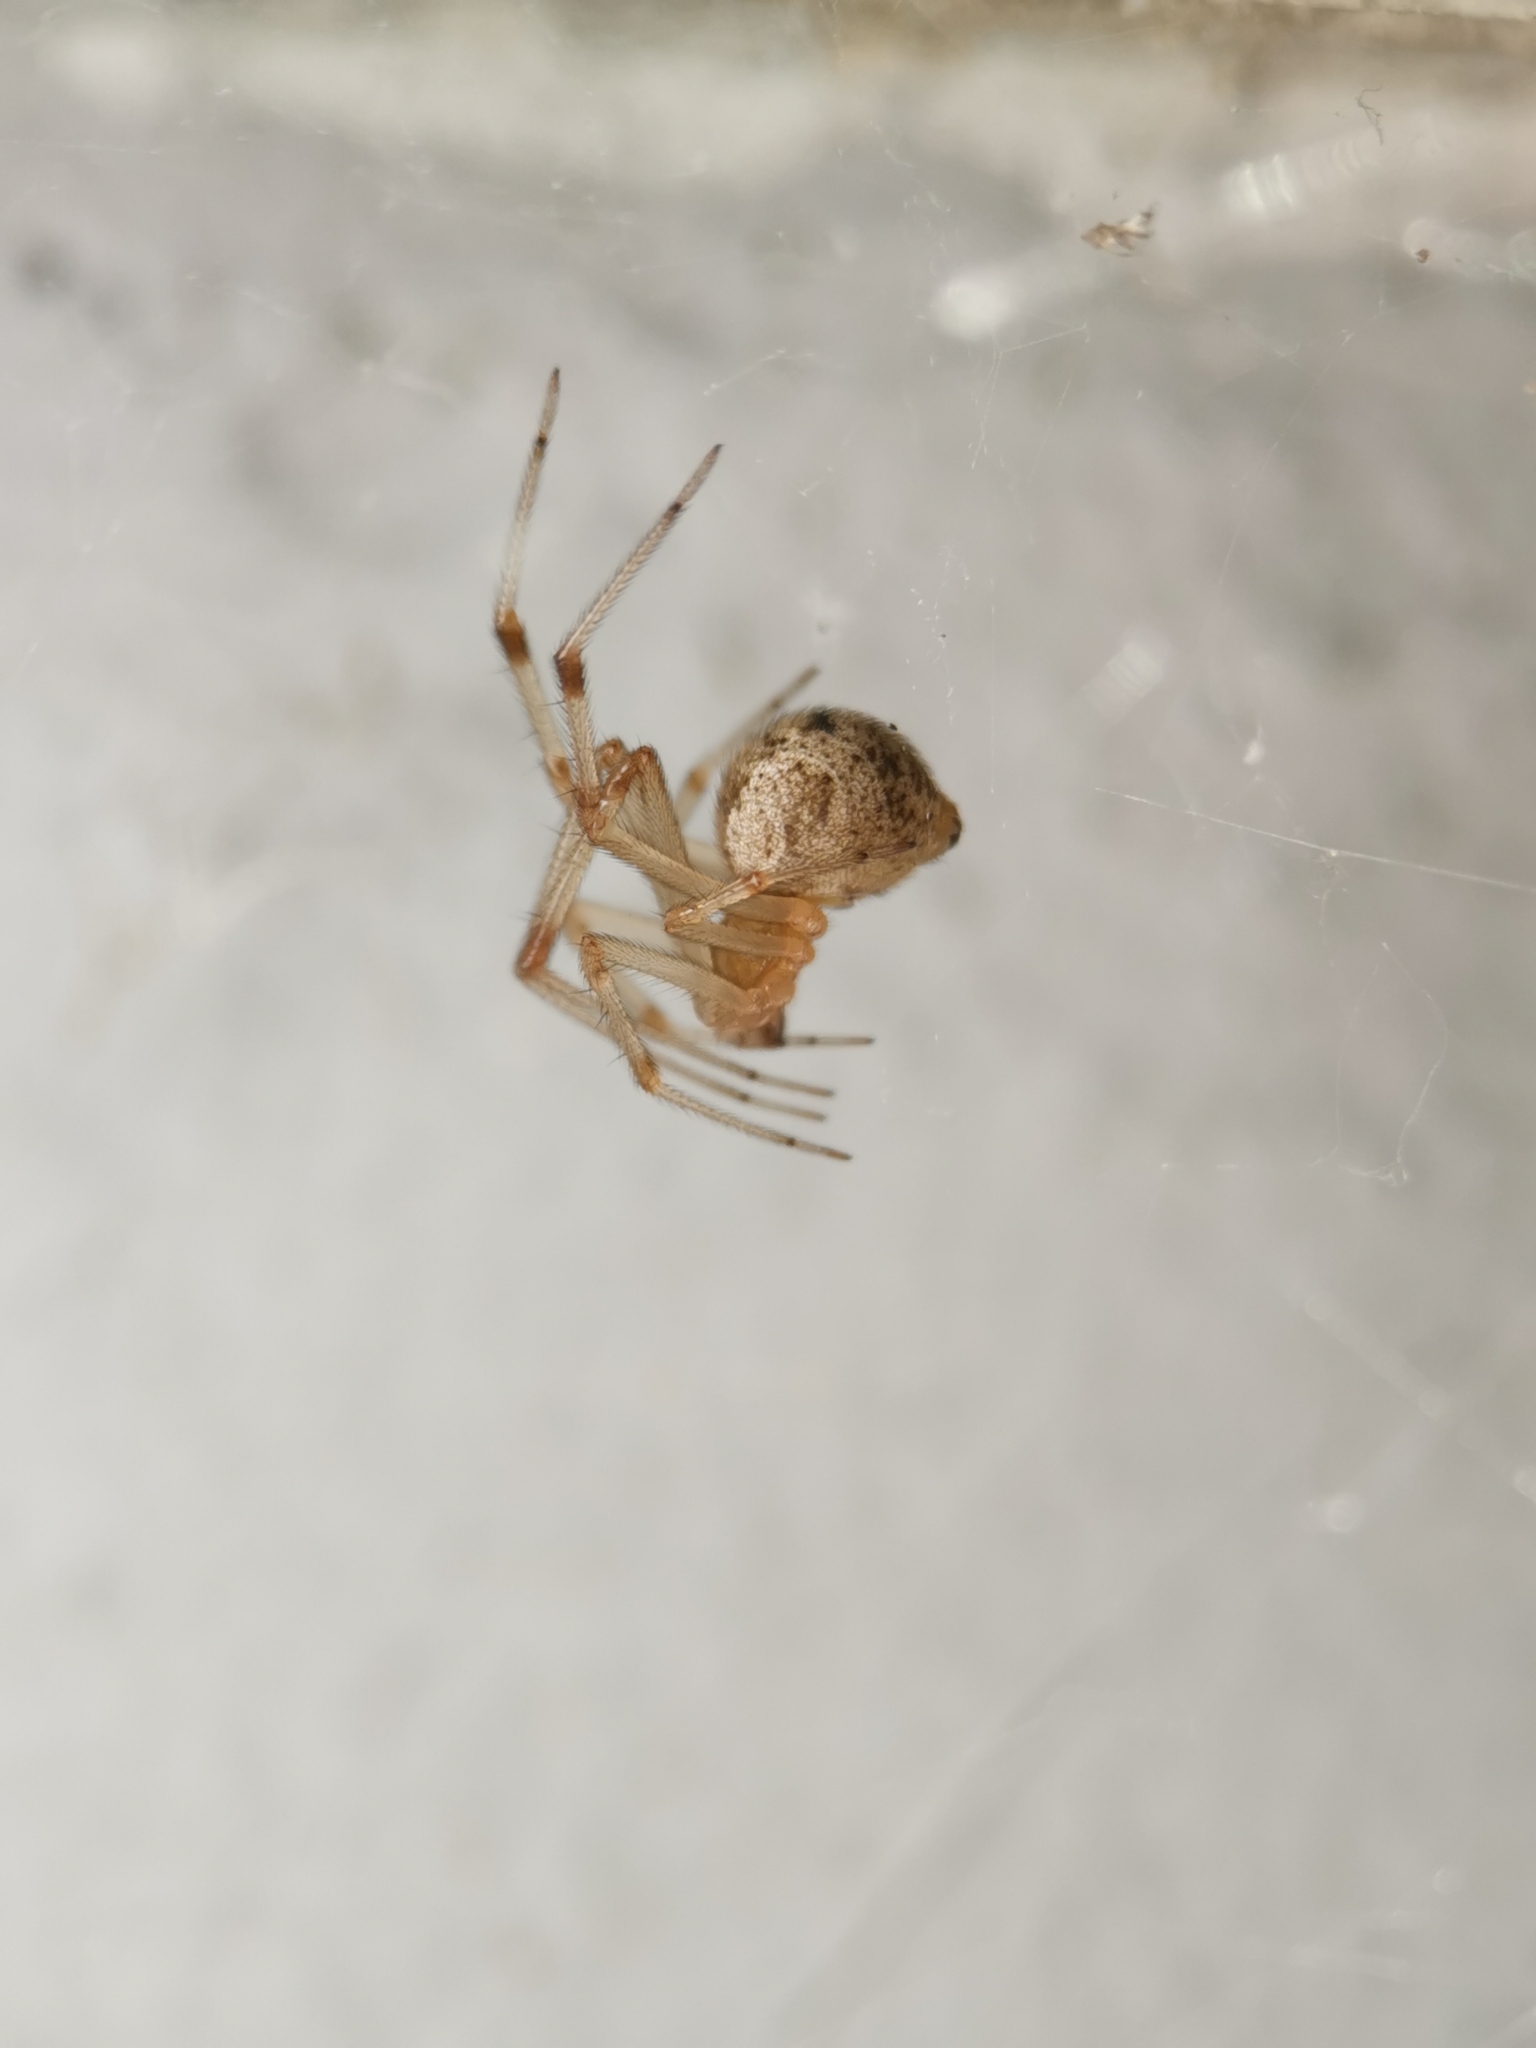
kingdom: Animalia
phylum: Arthropoda
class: Arachnida
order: Araneae
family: Theridiidae
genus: Parasteatoda
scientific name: Parasteatoda tepidariorum
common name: Common house spider
